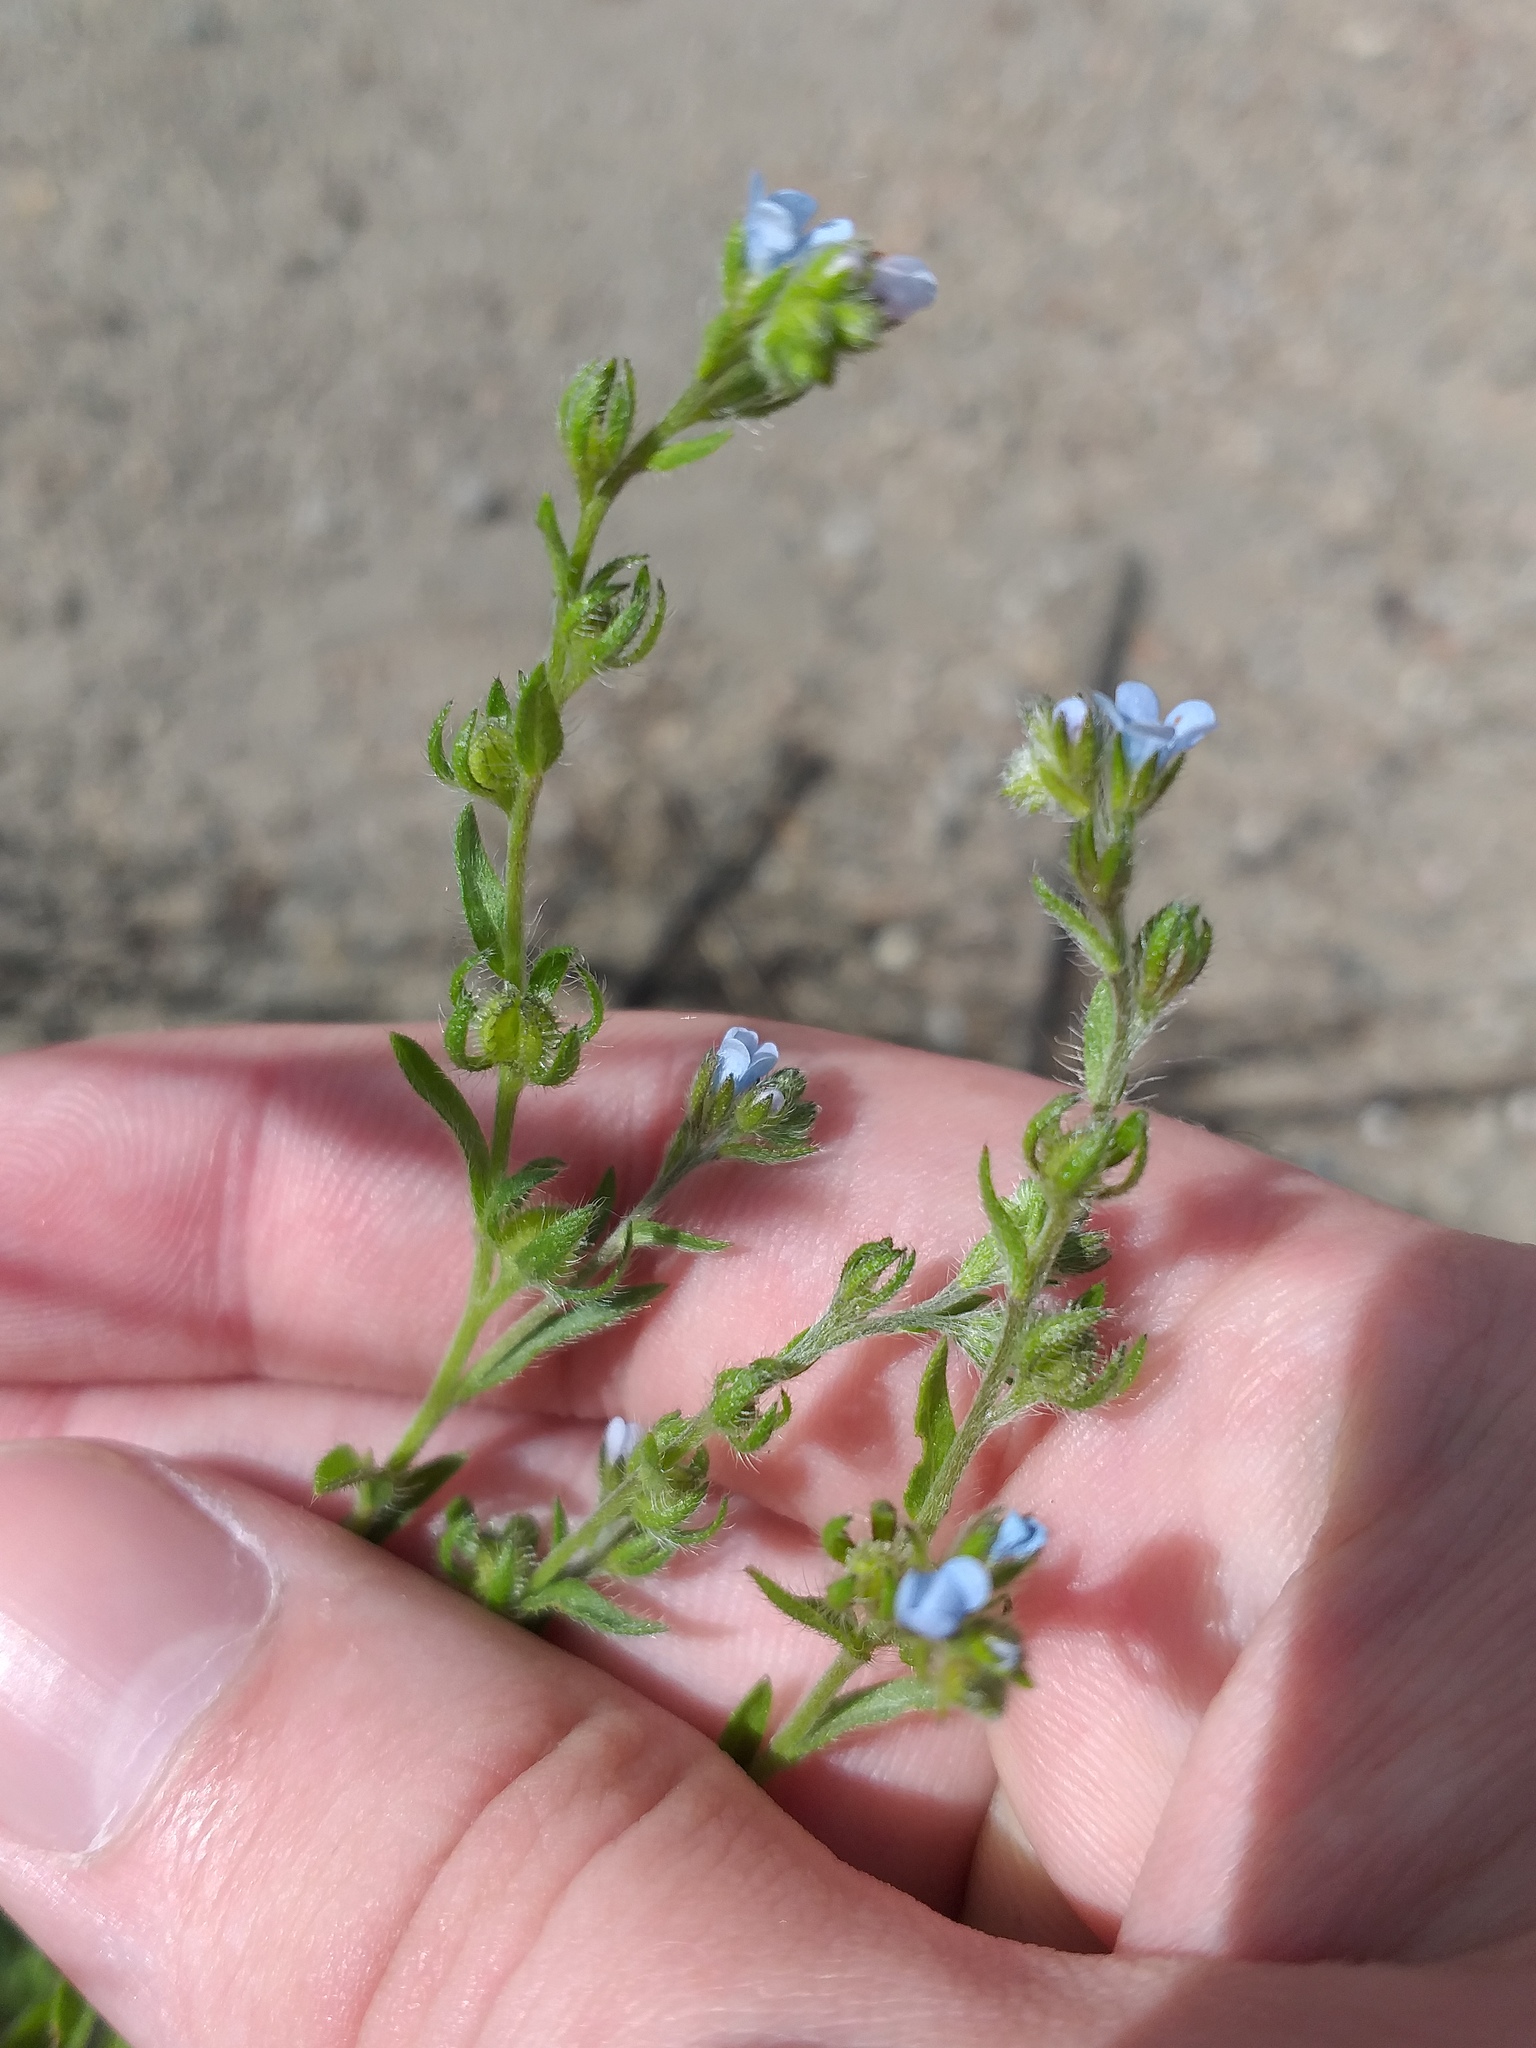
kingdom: Plantae
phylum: Tracheophyta
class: Magnoliopsida
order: Boraginales
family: Boraginaceae
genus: Lappula
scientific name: Lappula squarrosa
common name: European stickseed
